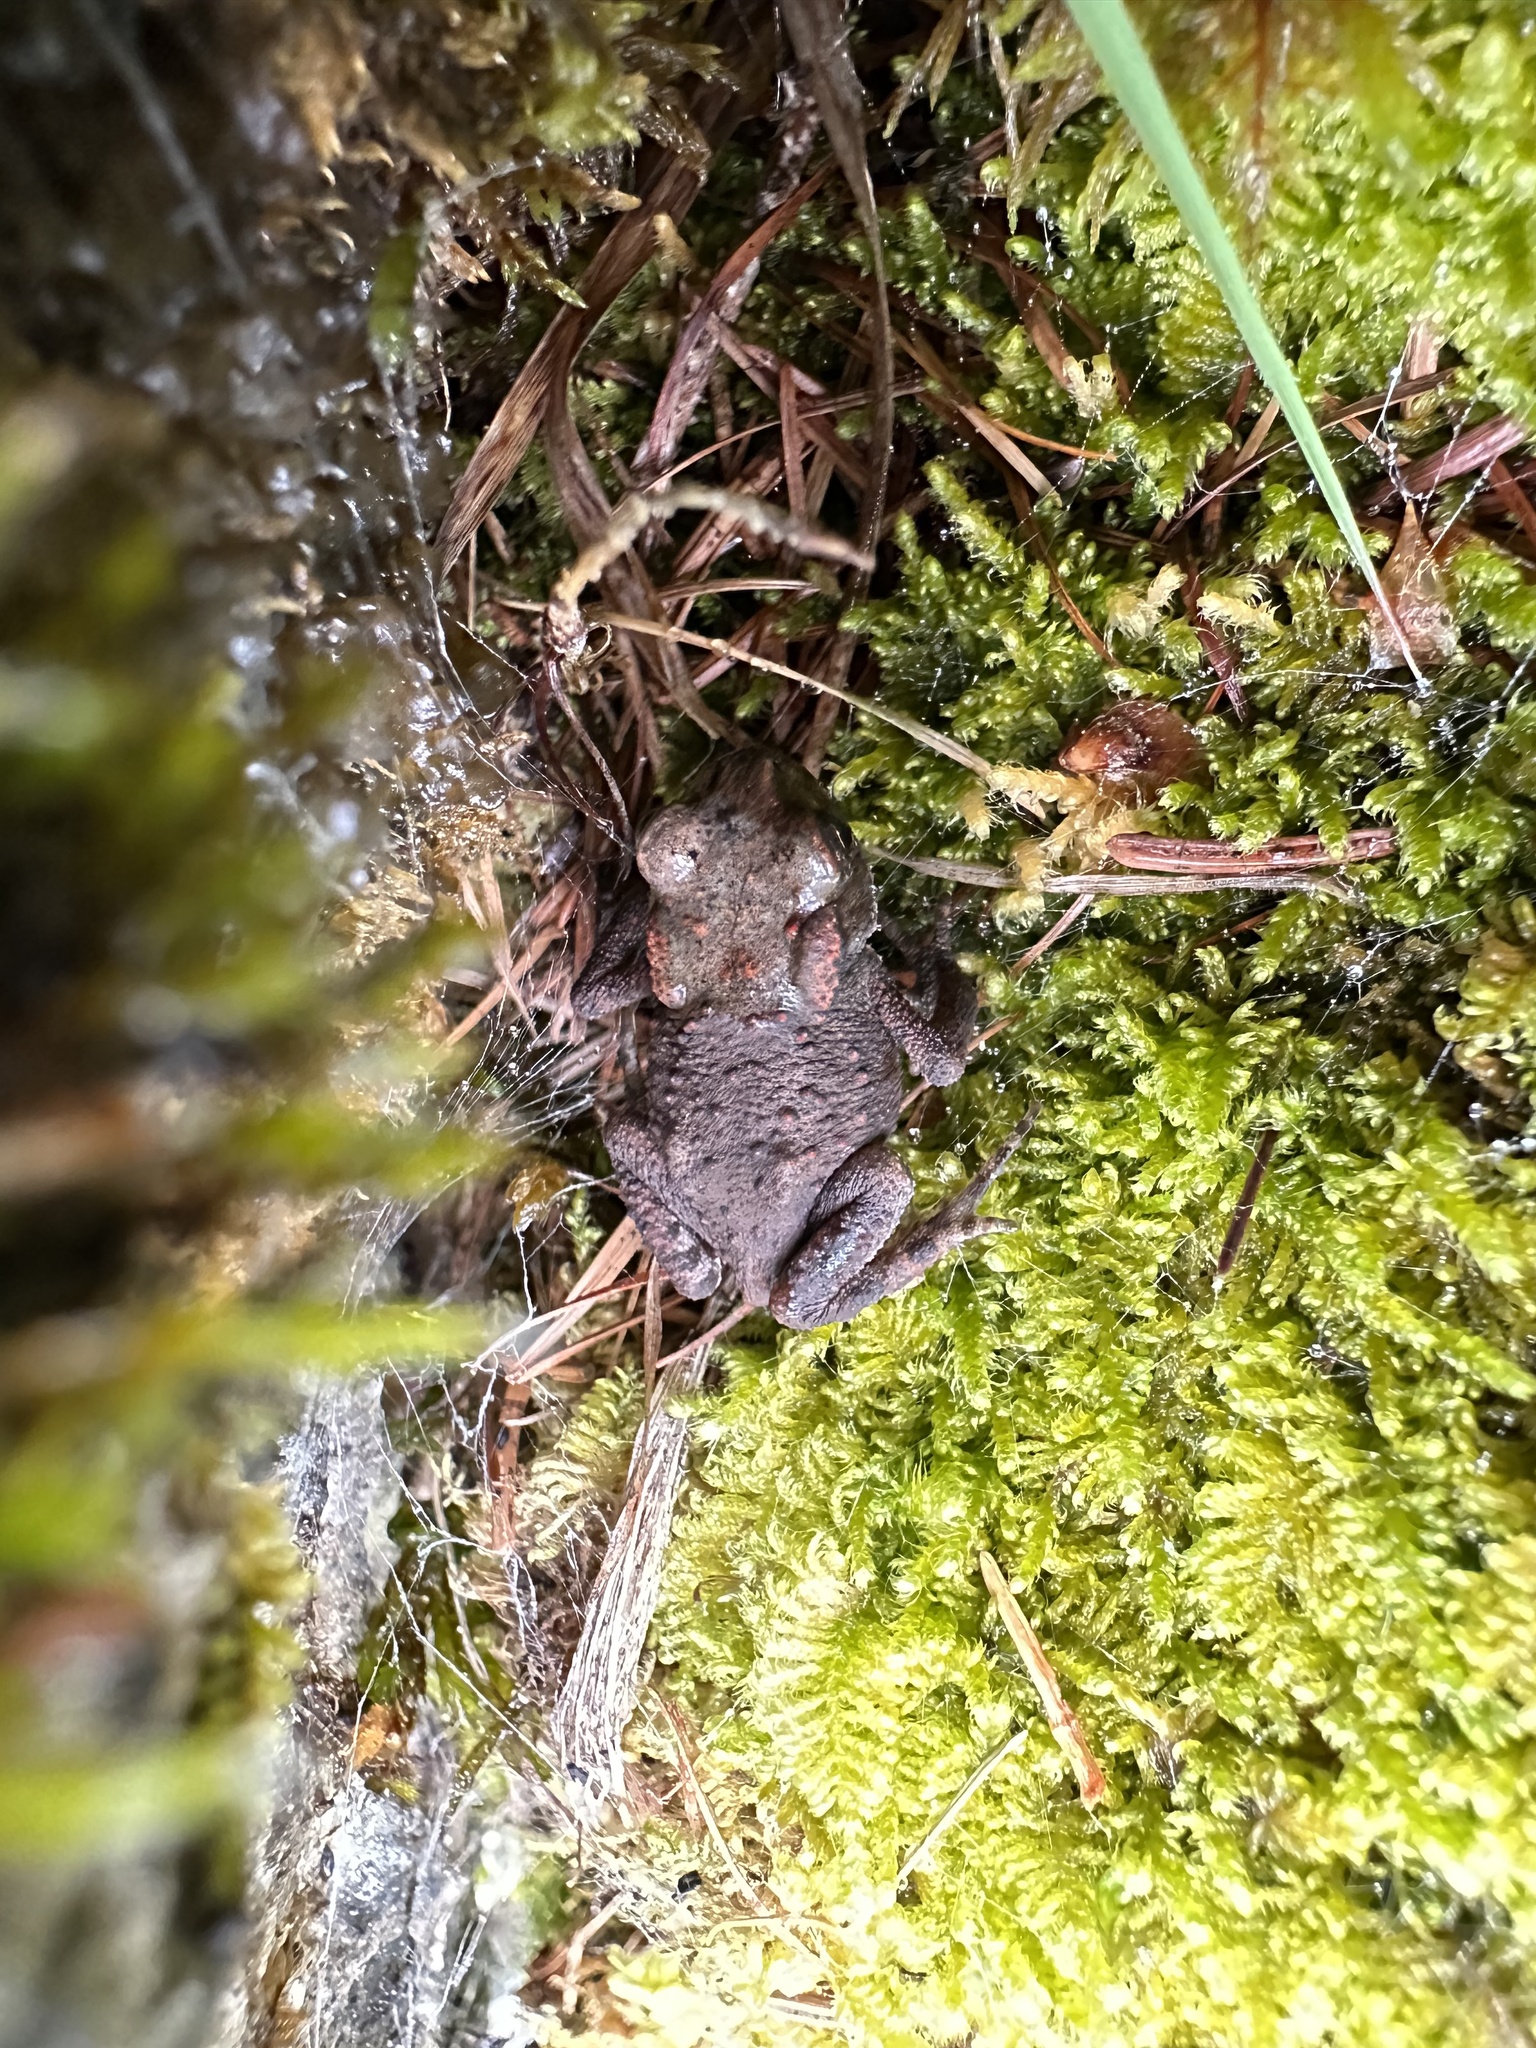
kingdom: Animalia
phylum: Chordata
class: Amphibia
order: Anura
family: Bufonidae
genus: Bufo
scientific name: Bufo bufo
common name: Common toad
